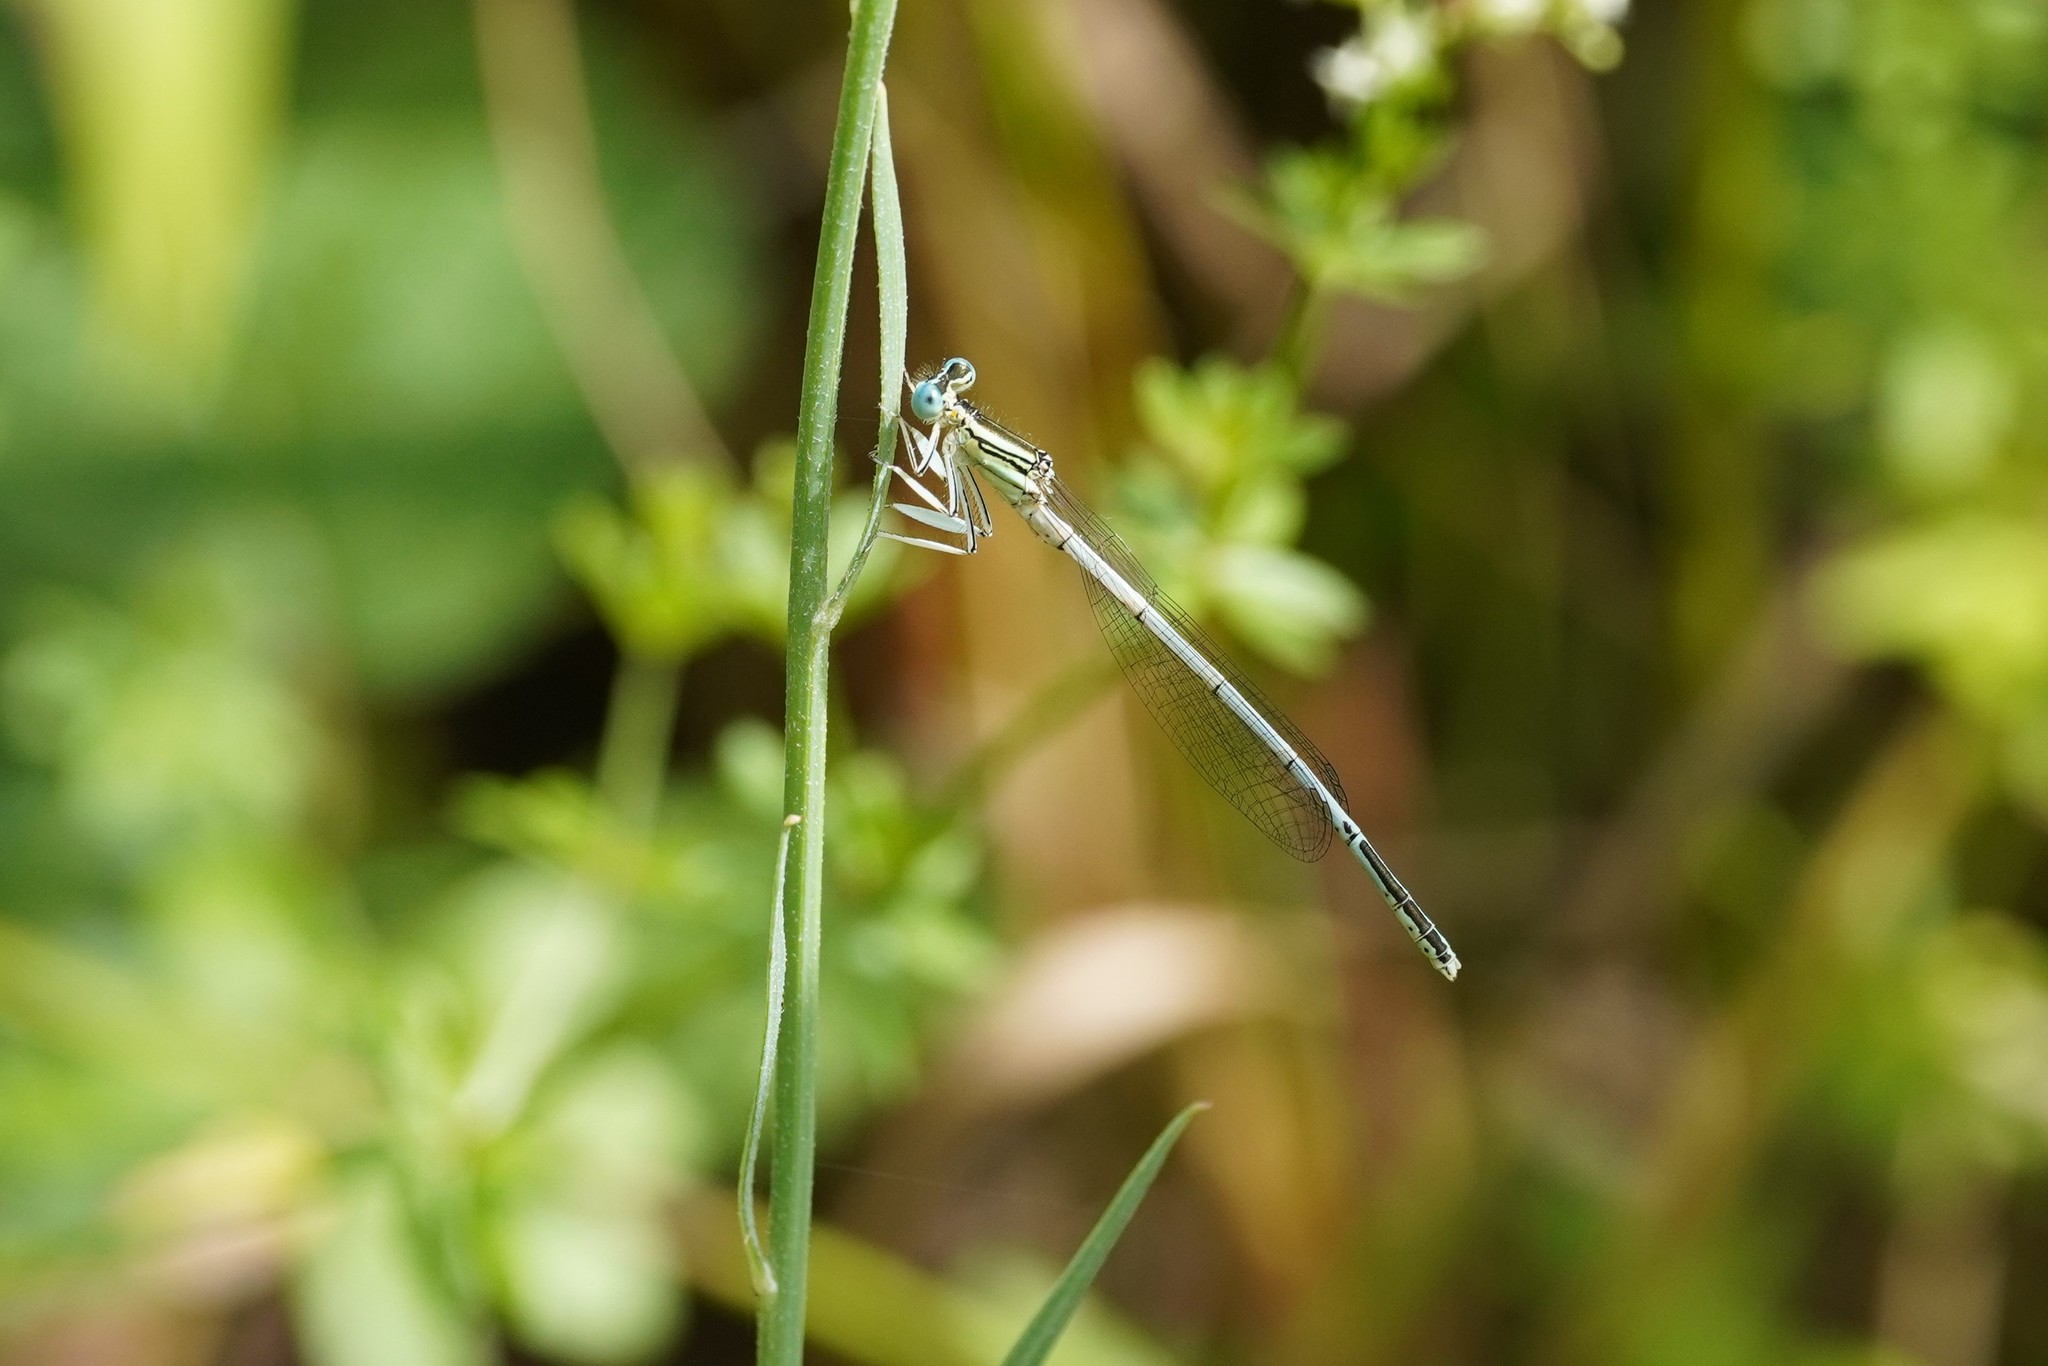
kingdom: Animalia
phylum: Arthropoda
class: Insecta
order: Odonata
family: Platycnemididae
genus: Platycnemis
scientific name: Platycnemis latipes
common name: White featherleg
